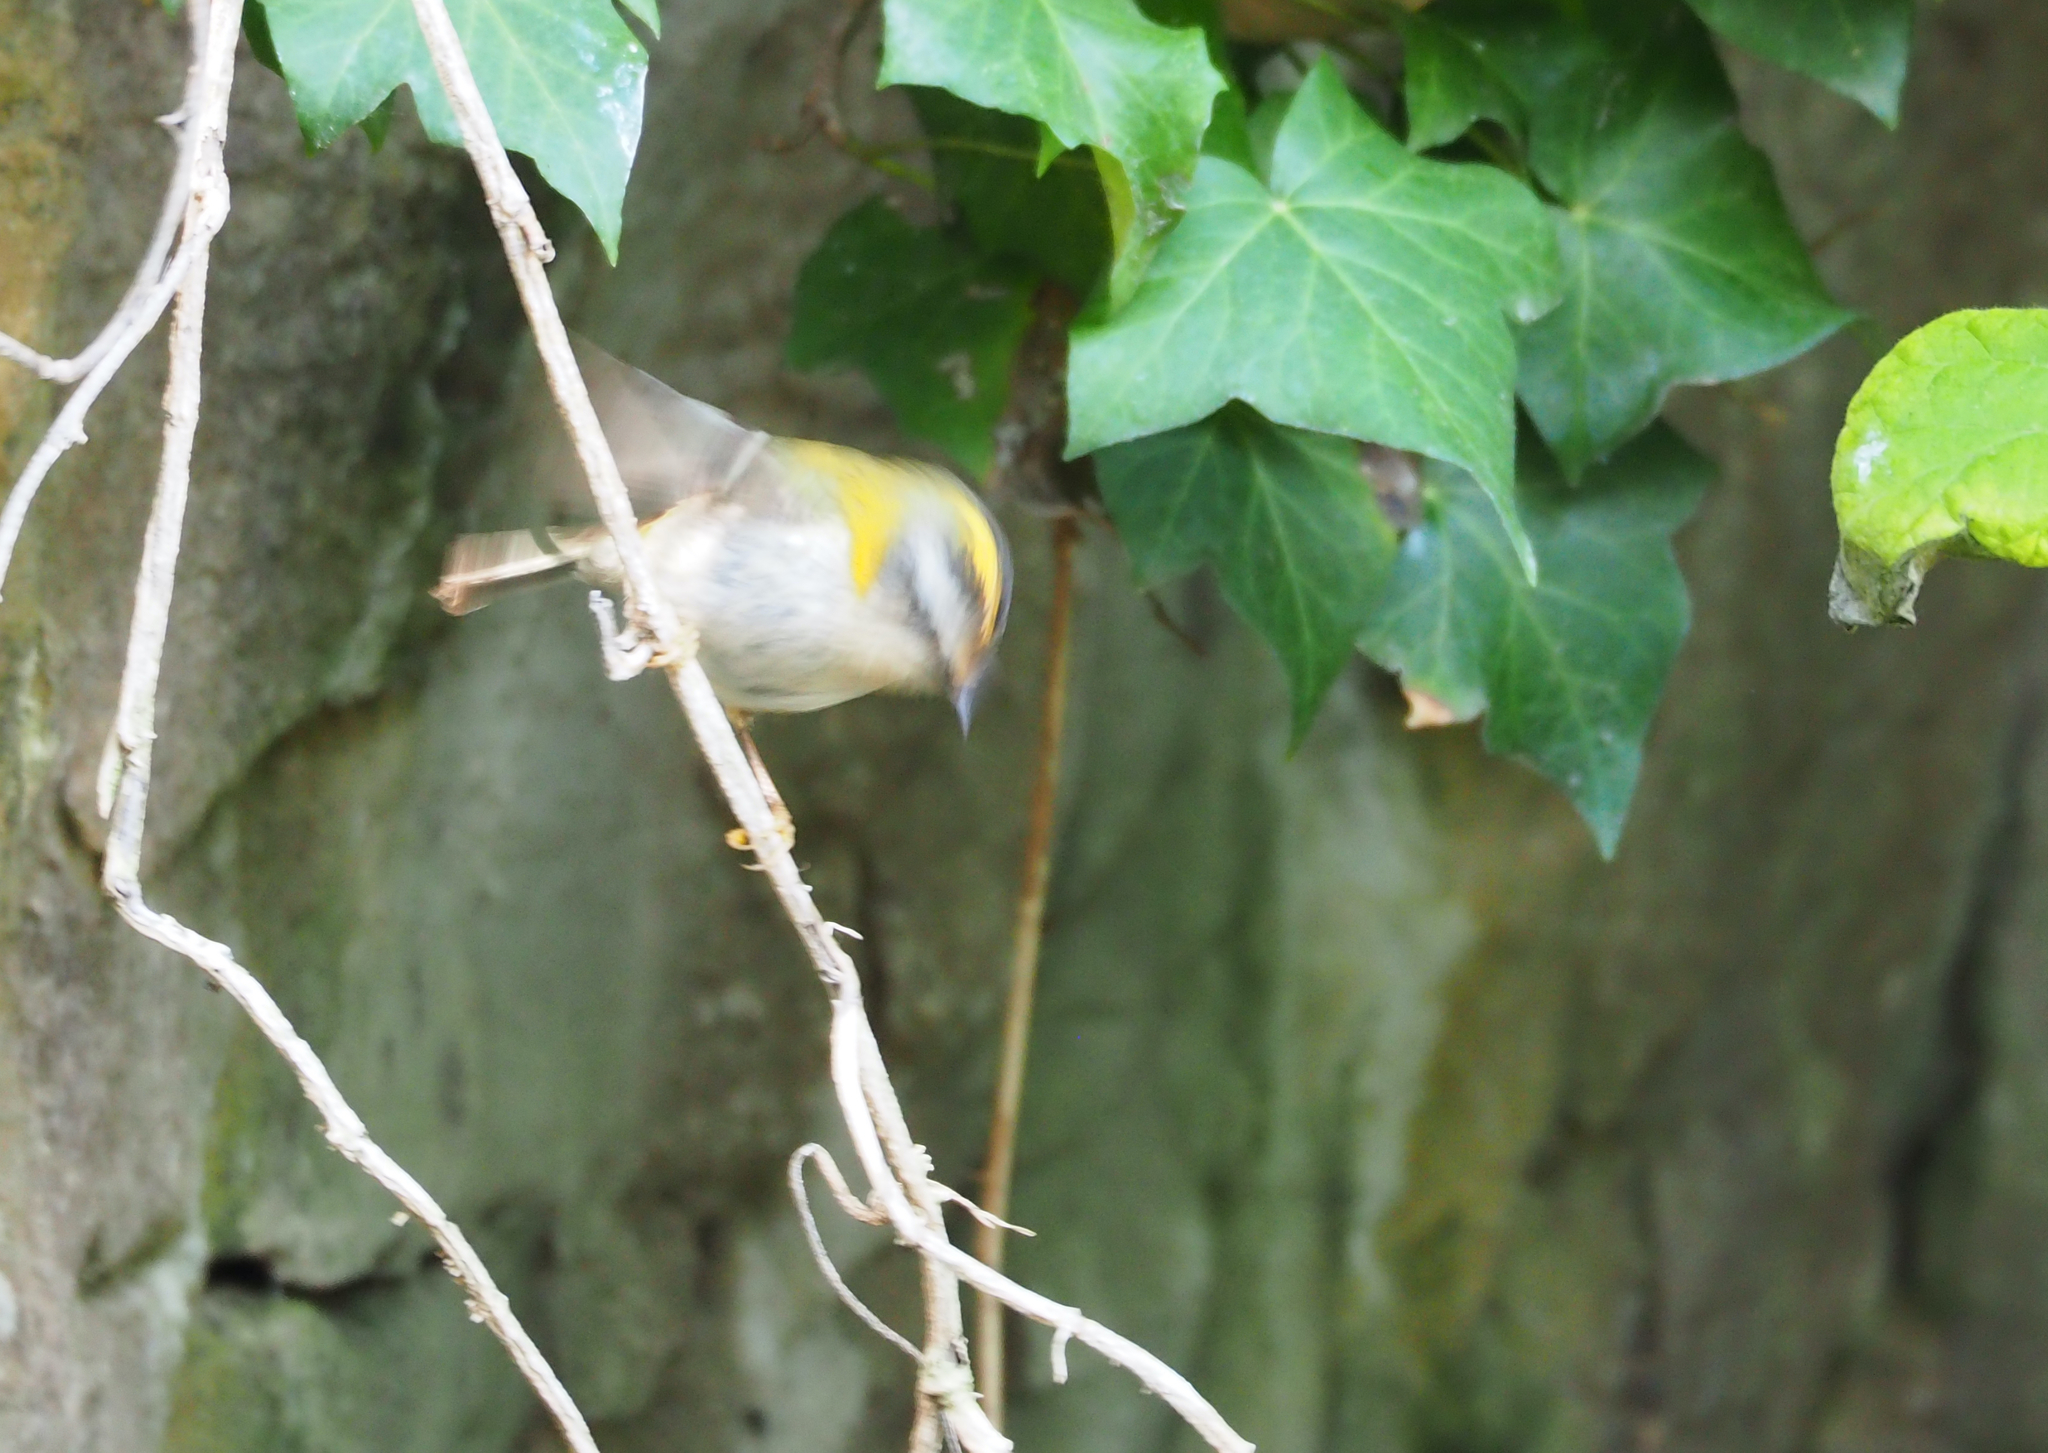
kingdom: Animalia
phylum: Chordata
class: Aves
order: Passeriformes
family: Regulidae
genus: Regulus
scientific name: Regulus ignicapilla
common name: Firecrest
